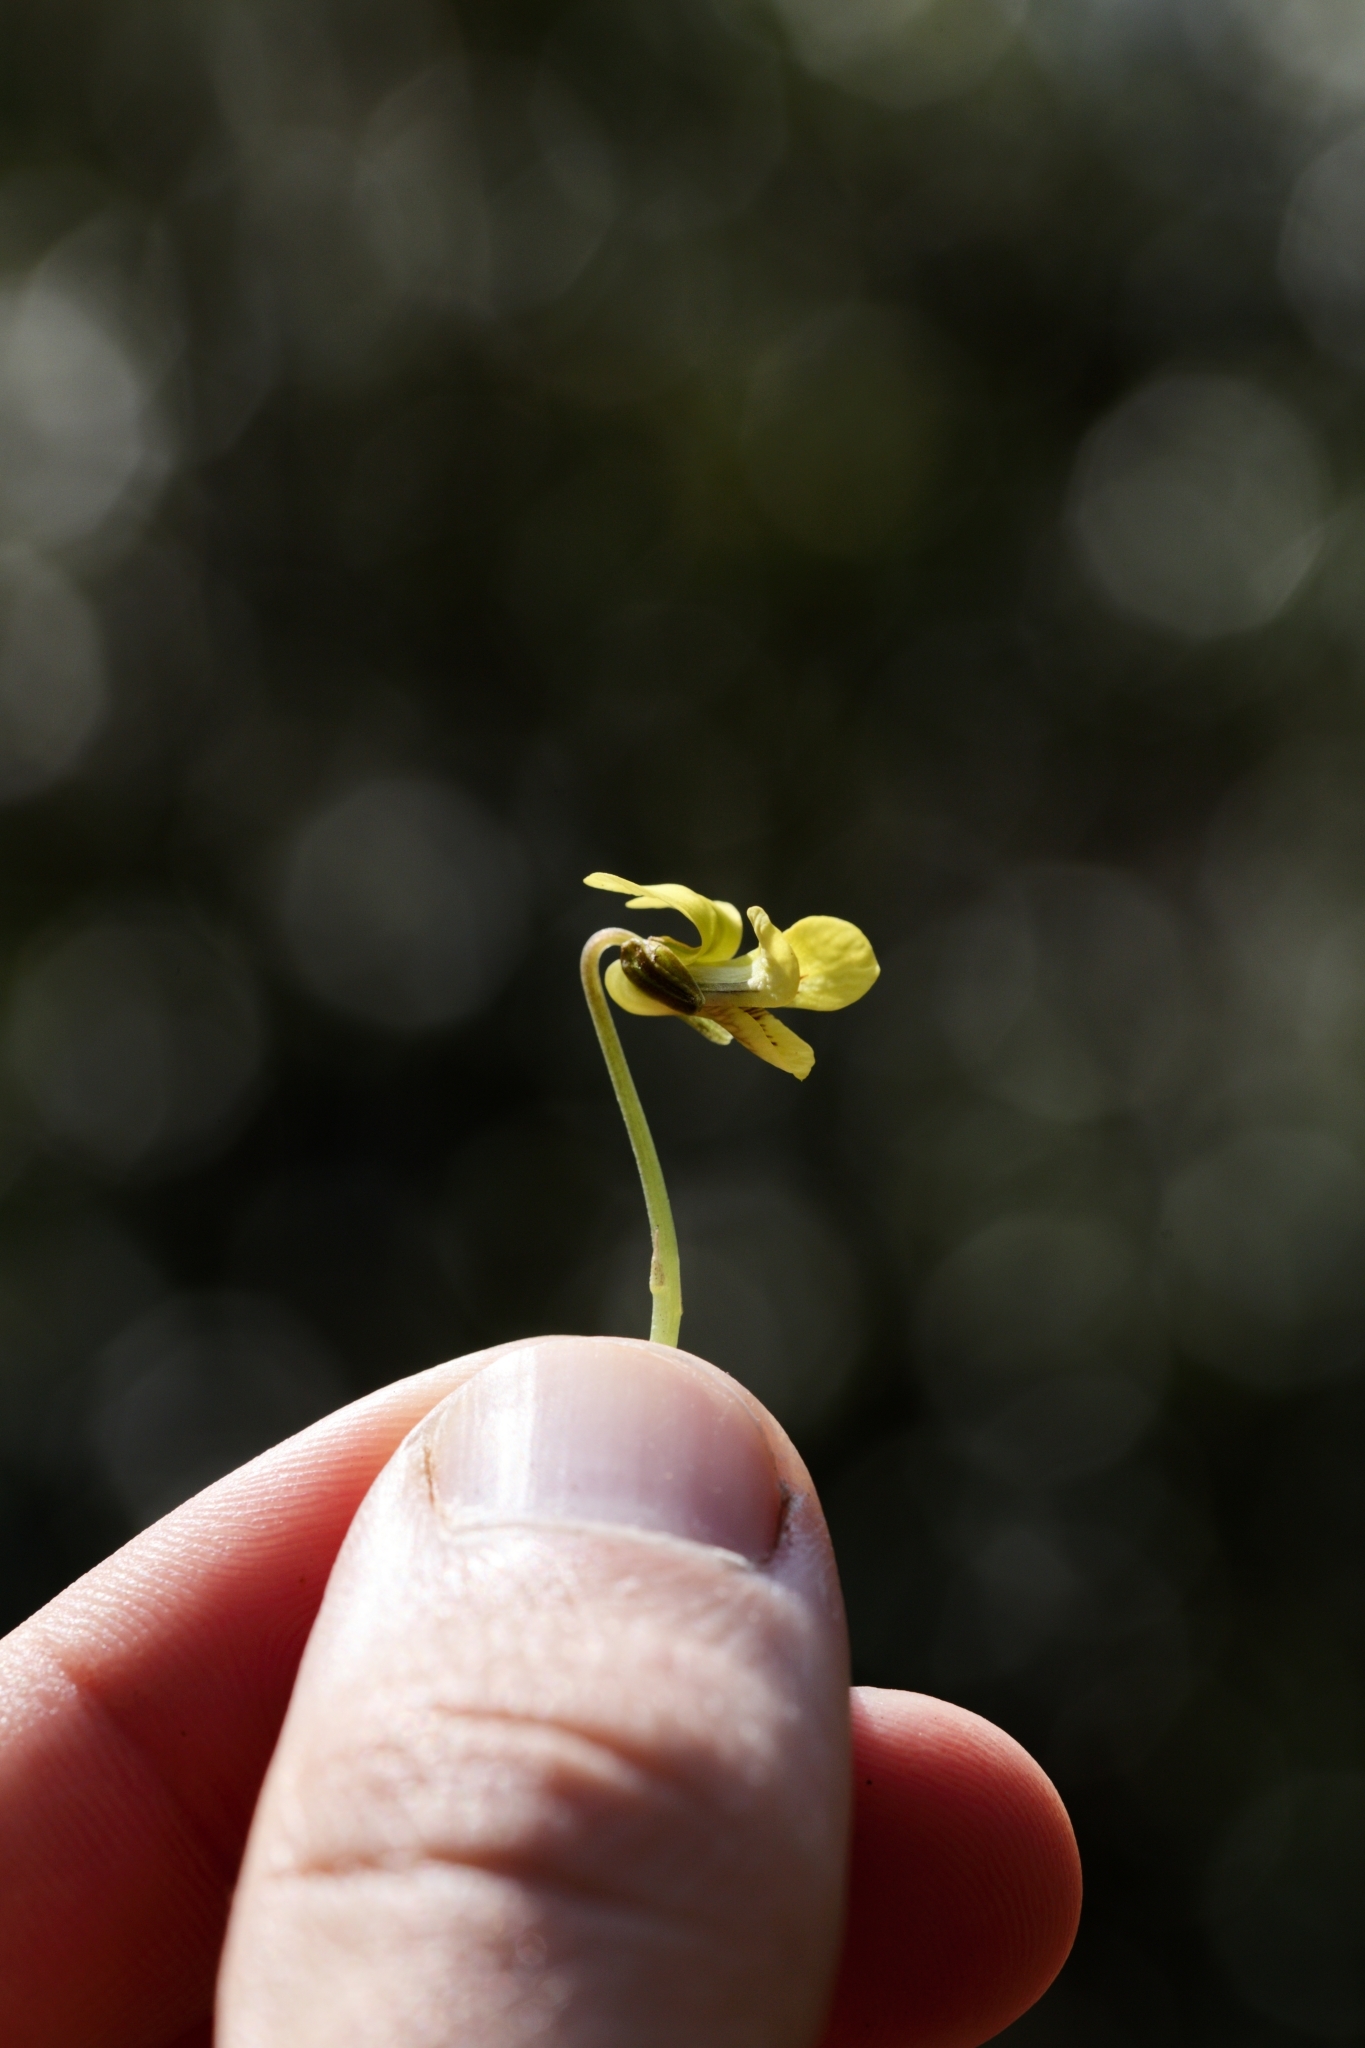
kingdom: Plantae
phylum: Tracheophyta
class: Magnoliopsida
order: Malpighiales
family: Violaceae
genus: Viola
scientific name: Viola rotundifolia
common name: Early yellow violet
